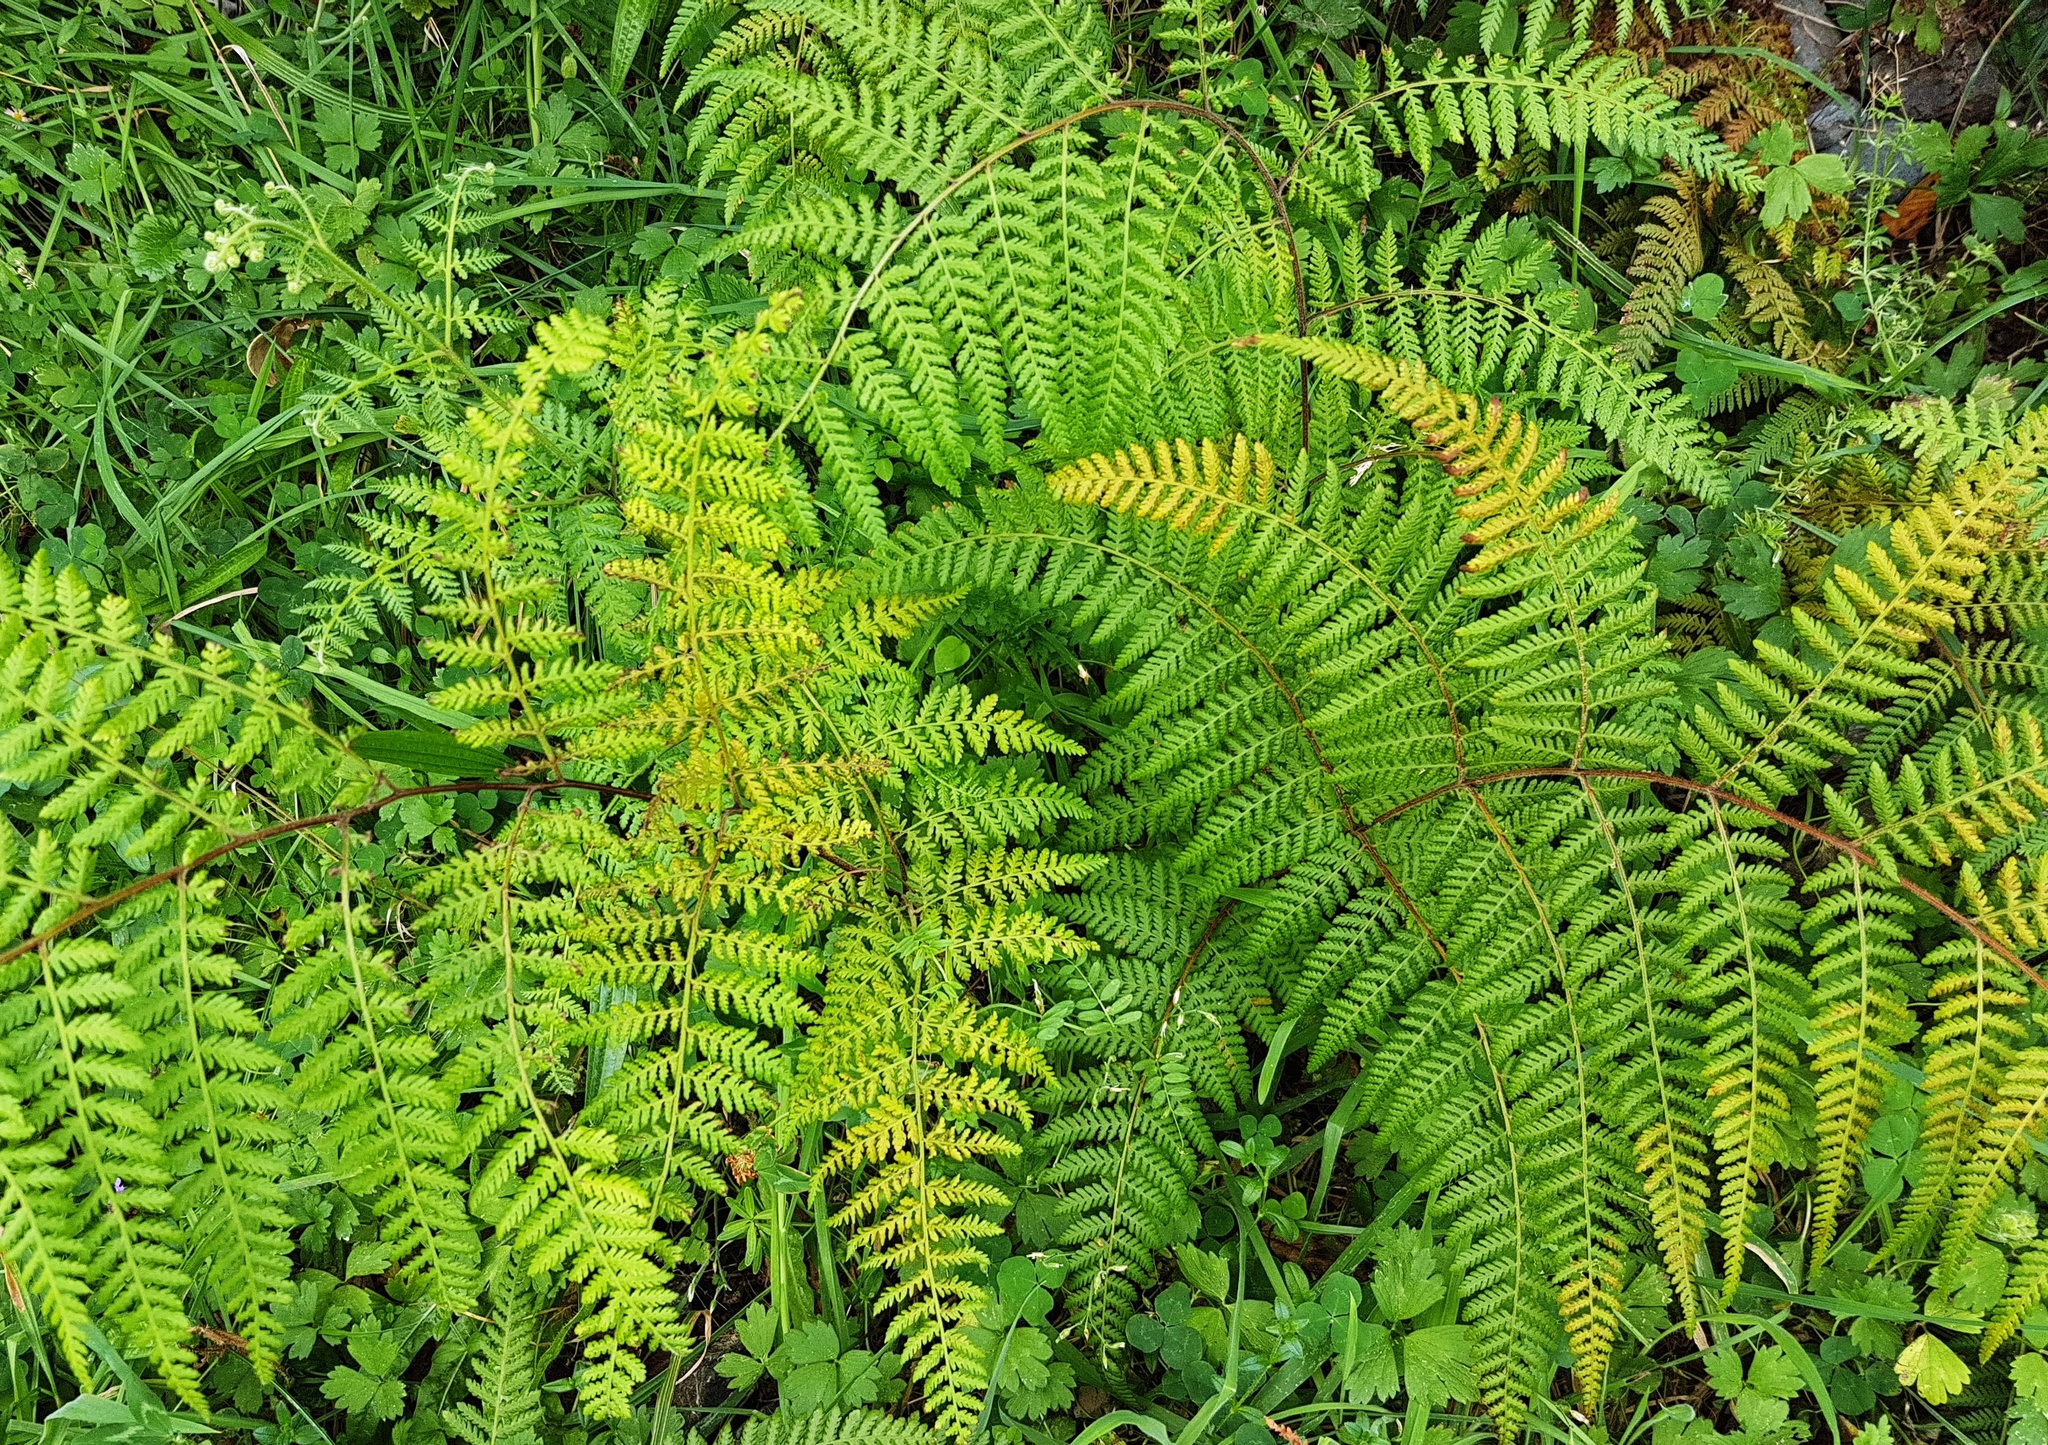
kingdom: Plantae
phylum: Tracheophyta
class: Polypodiopsida
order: Polypodiales
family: Dennstaedtiaceae
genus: Hypolepis
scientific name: Hypolepis ambigua
